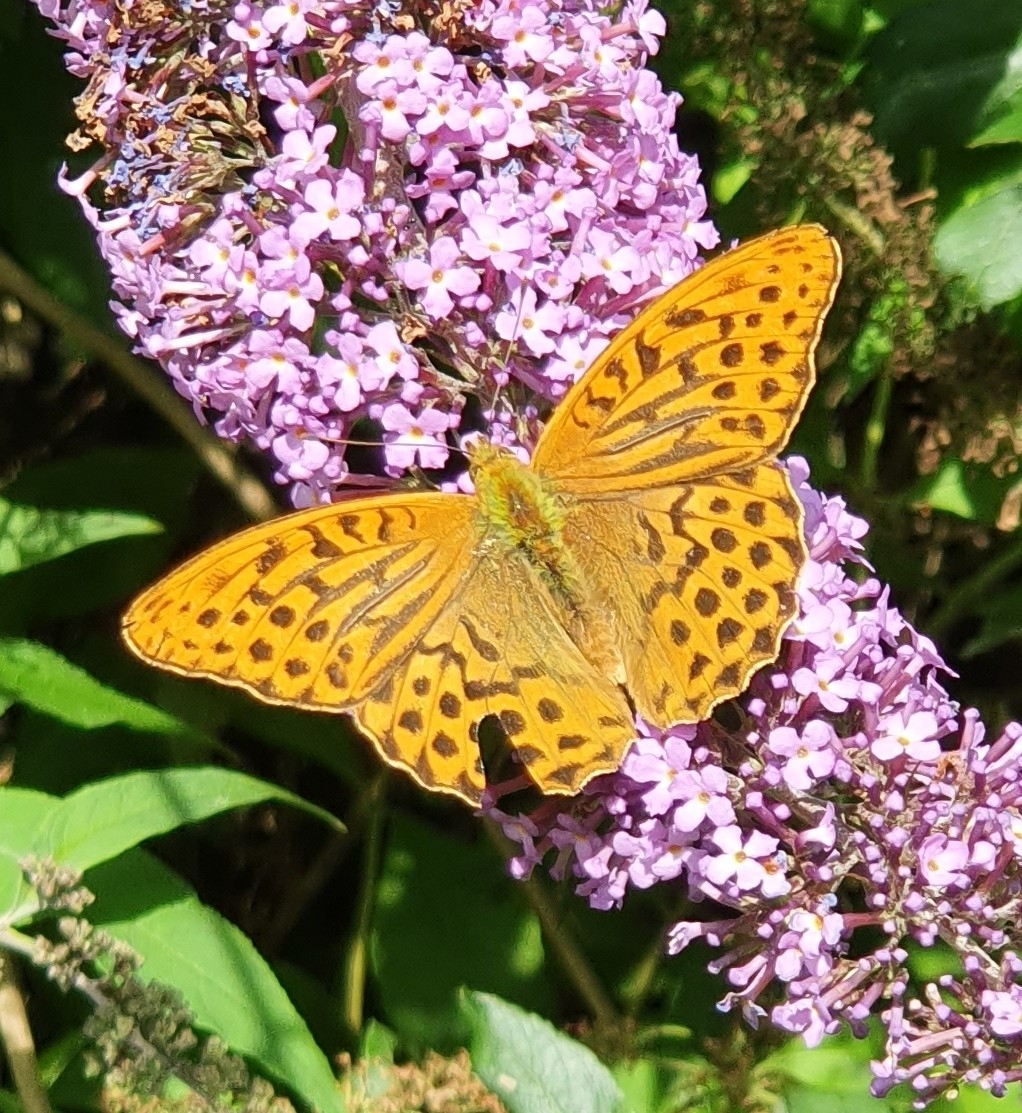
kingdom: Animalia
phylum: Arthropoda
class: Insecta
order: Lepidoptera
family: Nymphalidae
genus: Argynnis
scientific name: Argynnis paphia
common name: Silver-washed fritillary
